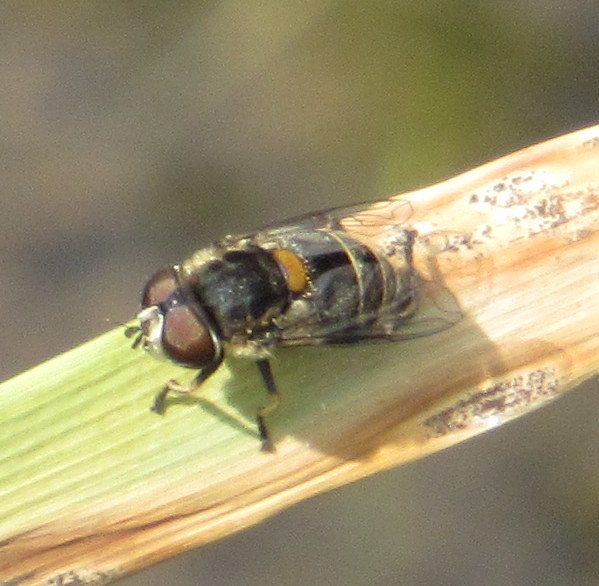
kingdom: Animalia
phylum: Arthropoda
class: Insecta
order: Diptera
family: Syrphidae
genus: Palpada
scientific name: Palpada texana
